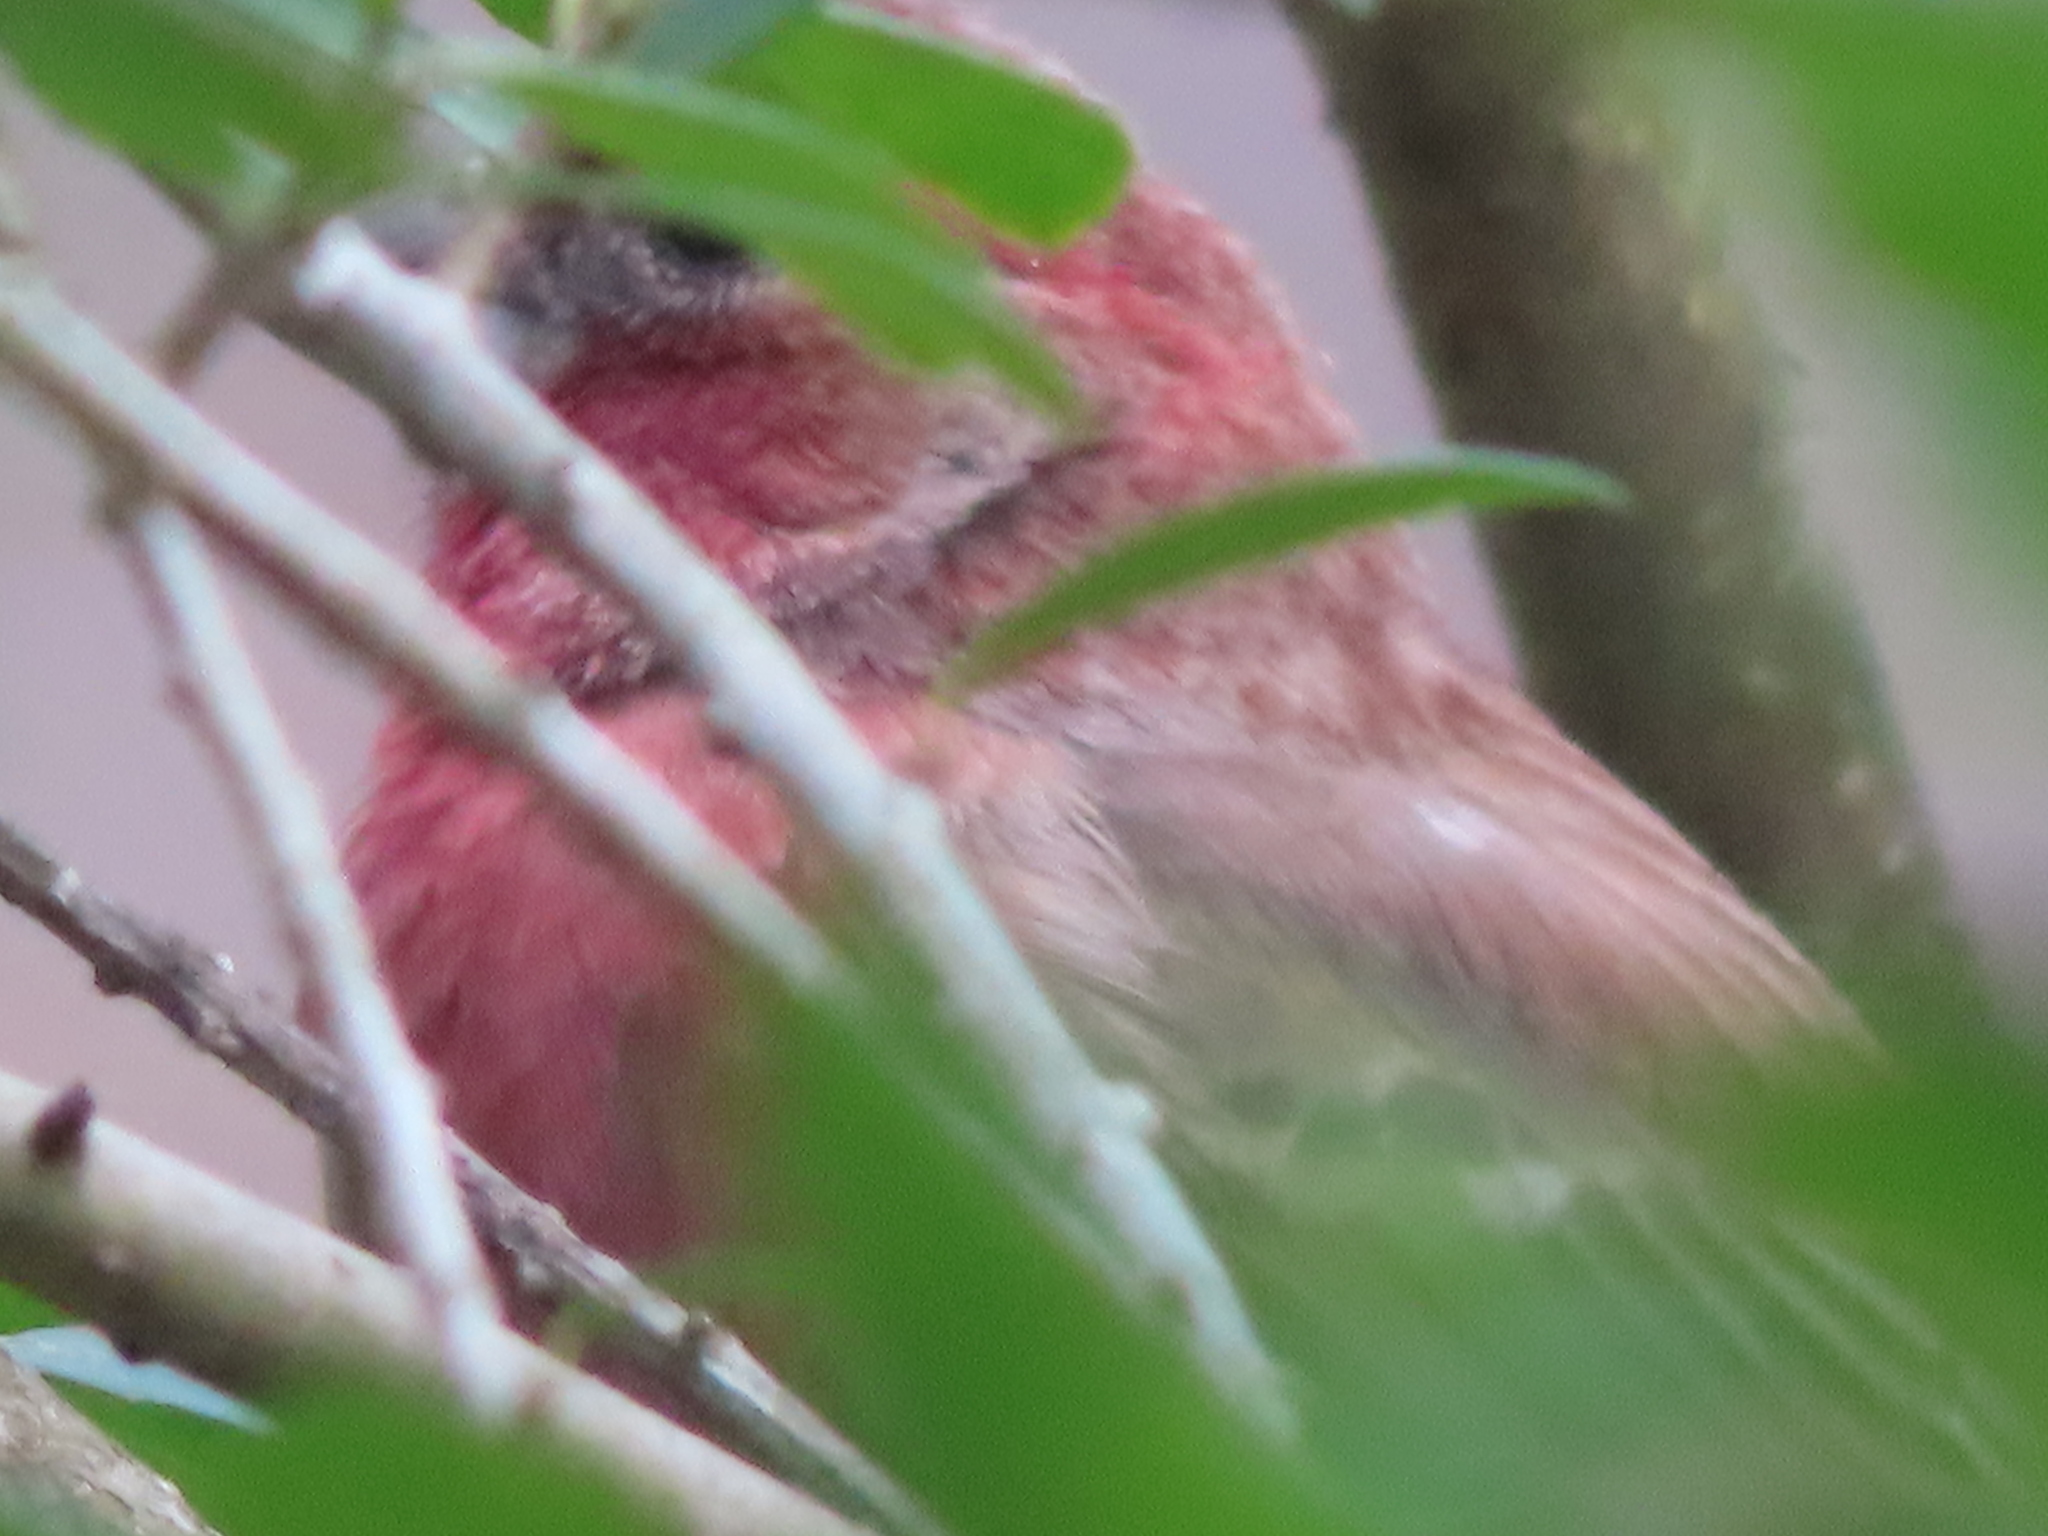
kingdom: Animalia
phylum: Chordata
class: Aves
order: Passeriformes
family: Fringillidae
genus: Haemorhous
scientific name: Haemorhous mexicanus
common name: House finch
